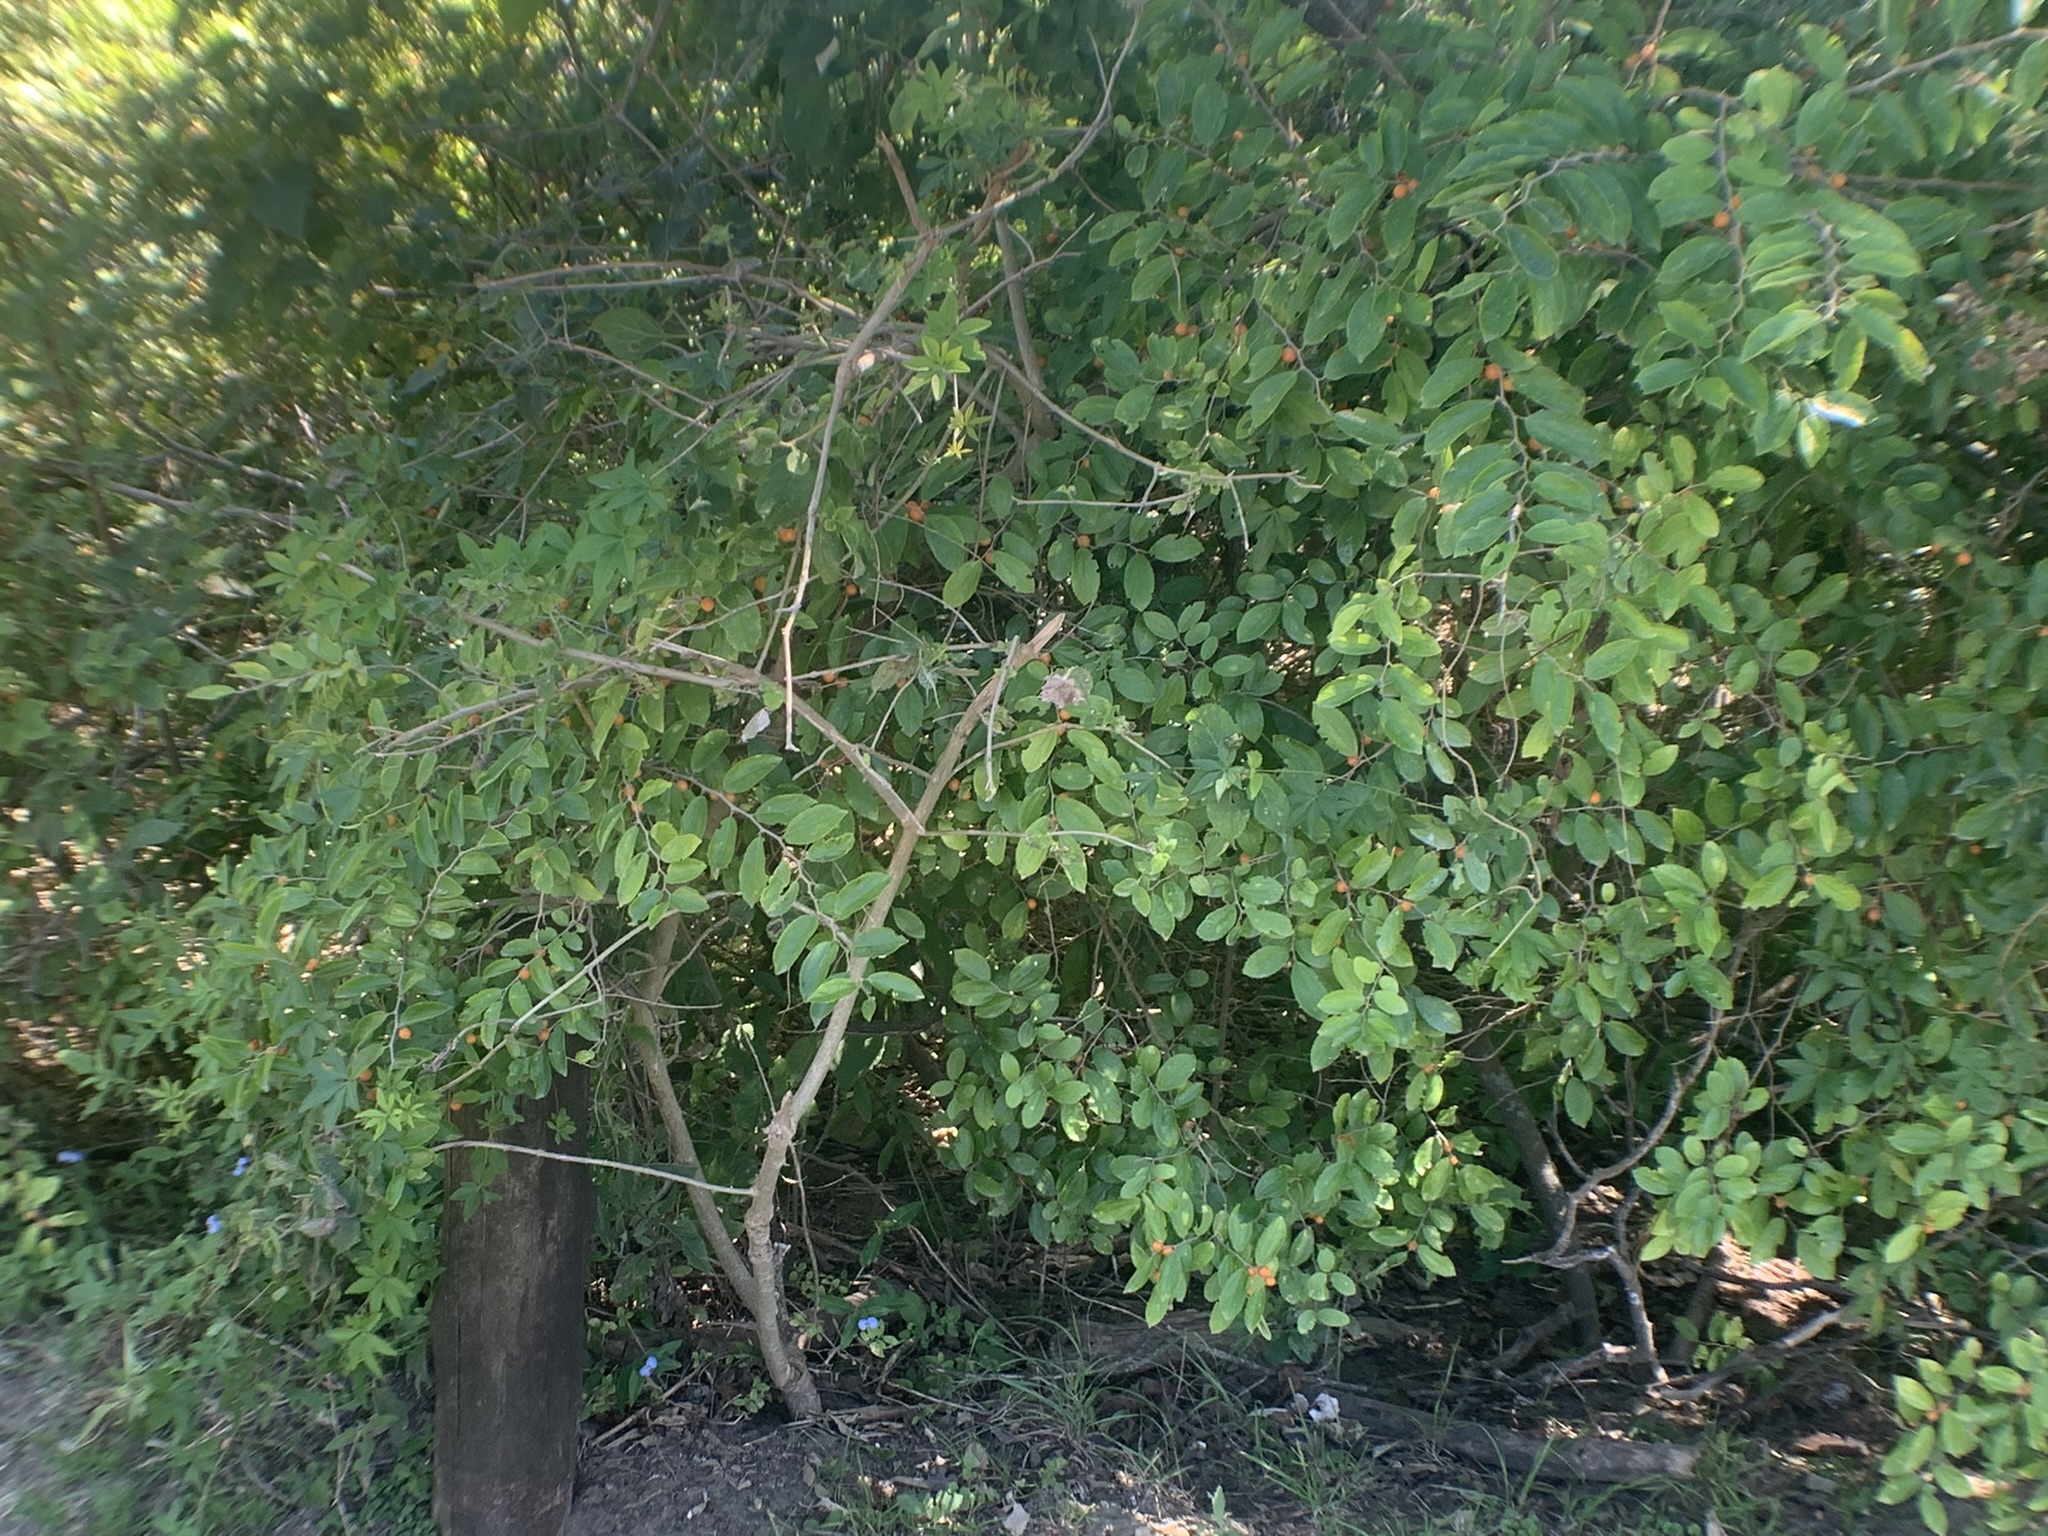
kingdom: Plantae
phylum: Tracheophyta
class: Magnoliopsida
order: Rosales
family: Cannabaceae
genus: Celtis
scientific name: Celtis iguanaea
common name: Iguana hackberry
